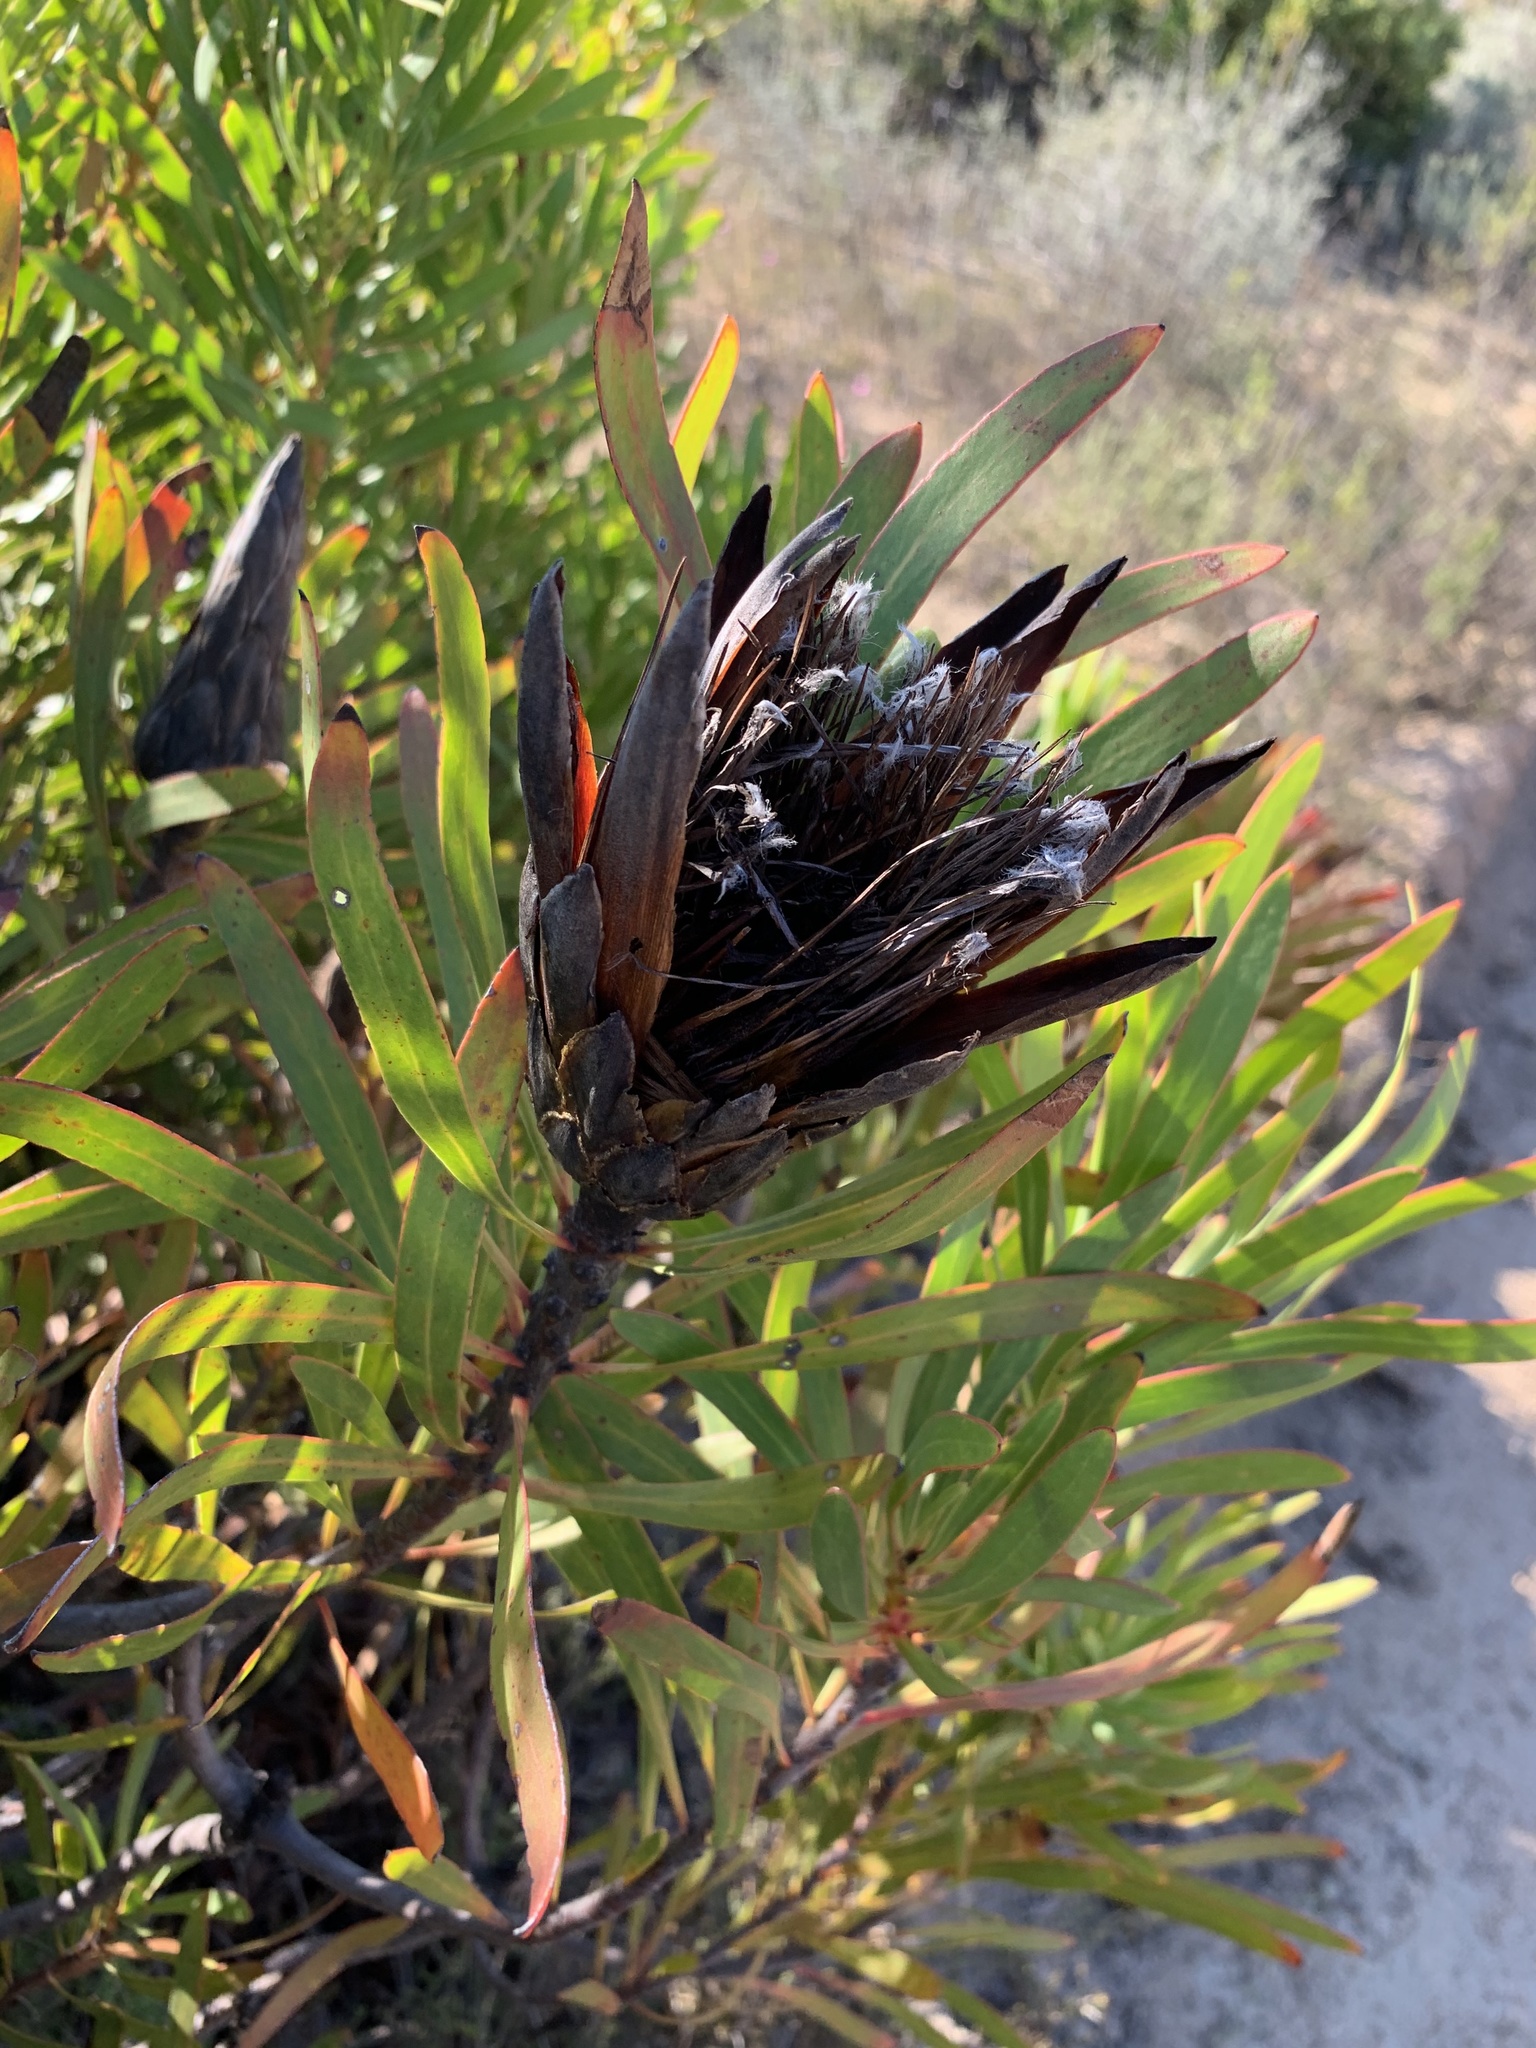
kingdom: Plantae
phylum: Tracheophyta
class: Magnoliopsida
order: Proteales
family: Proteaceae
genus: Protea
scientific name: Protea repens
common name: Sugarbush
